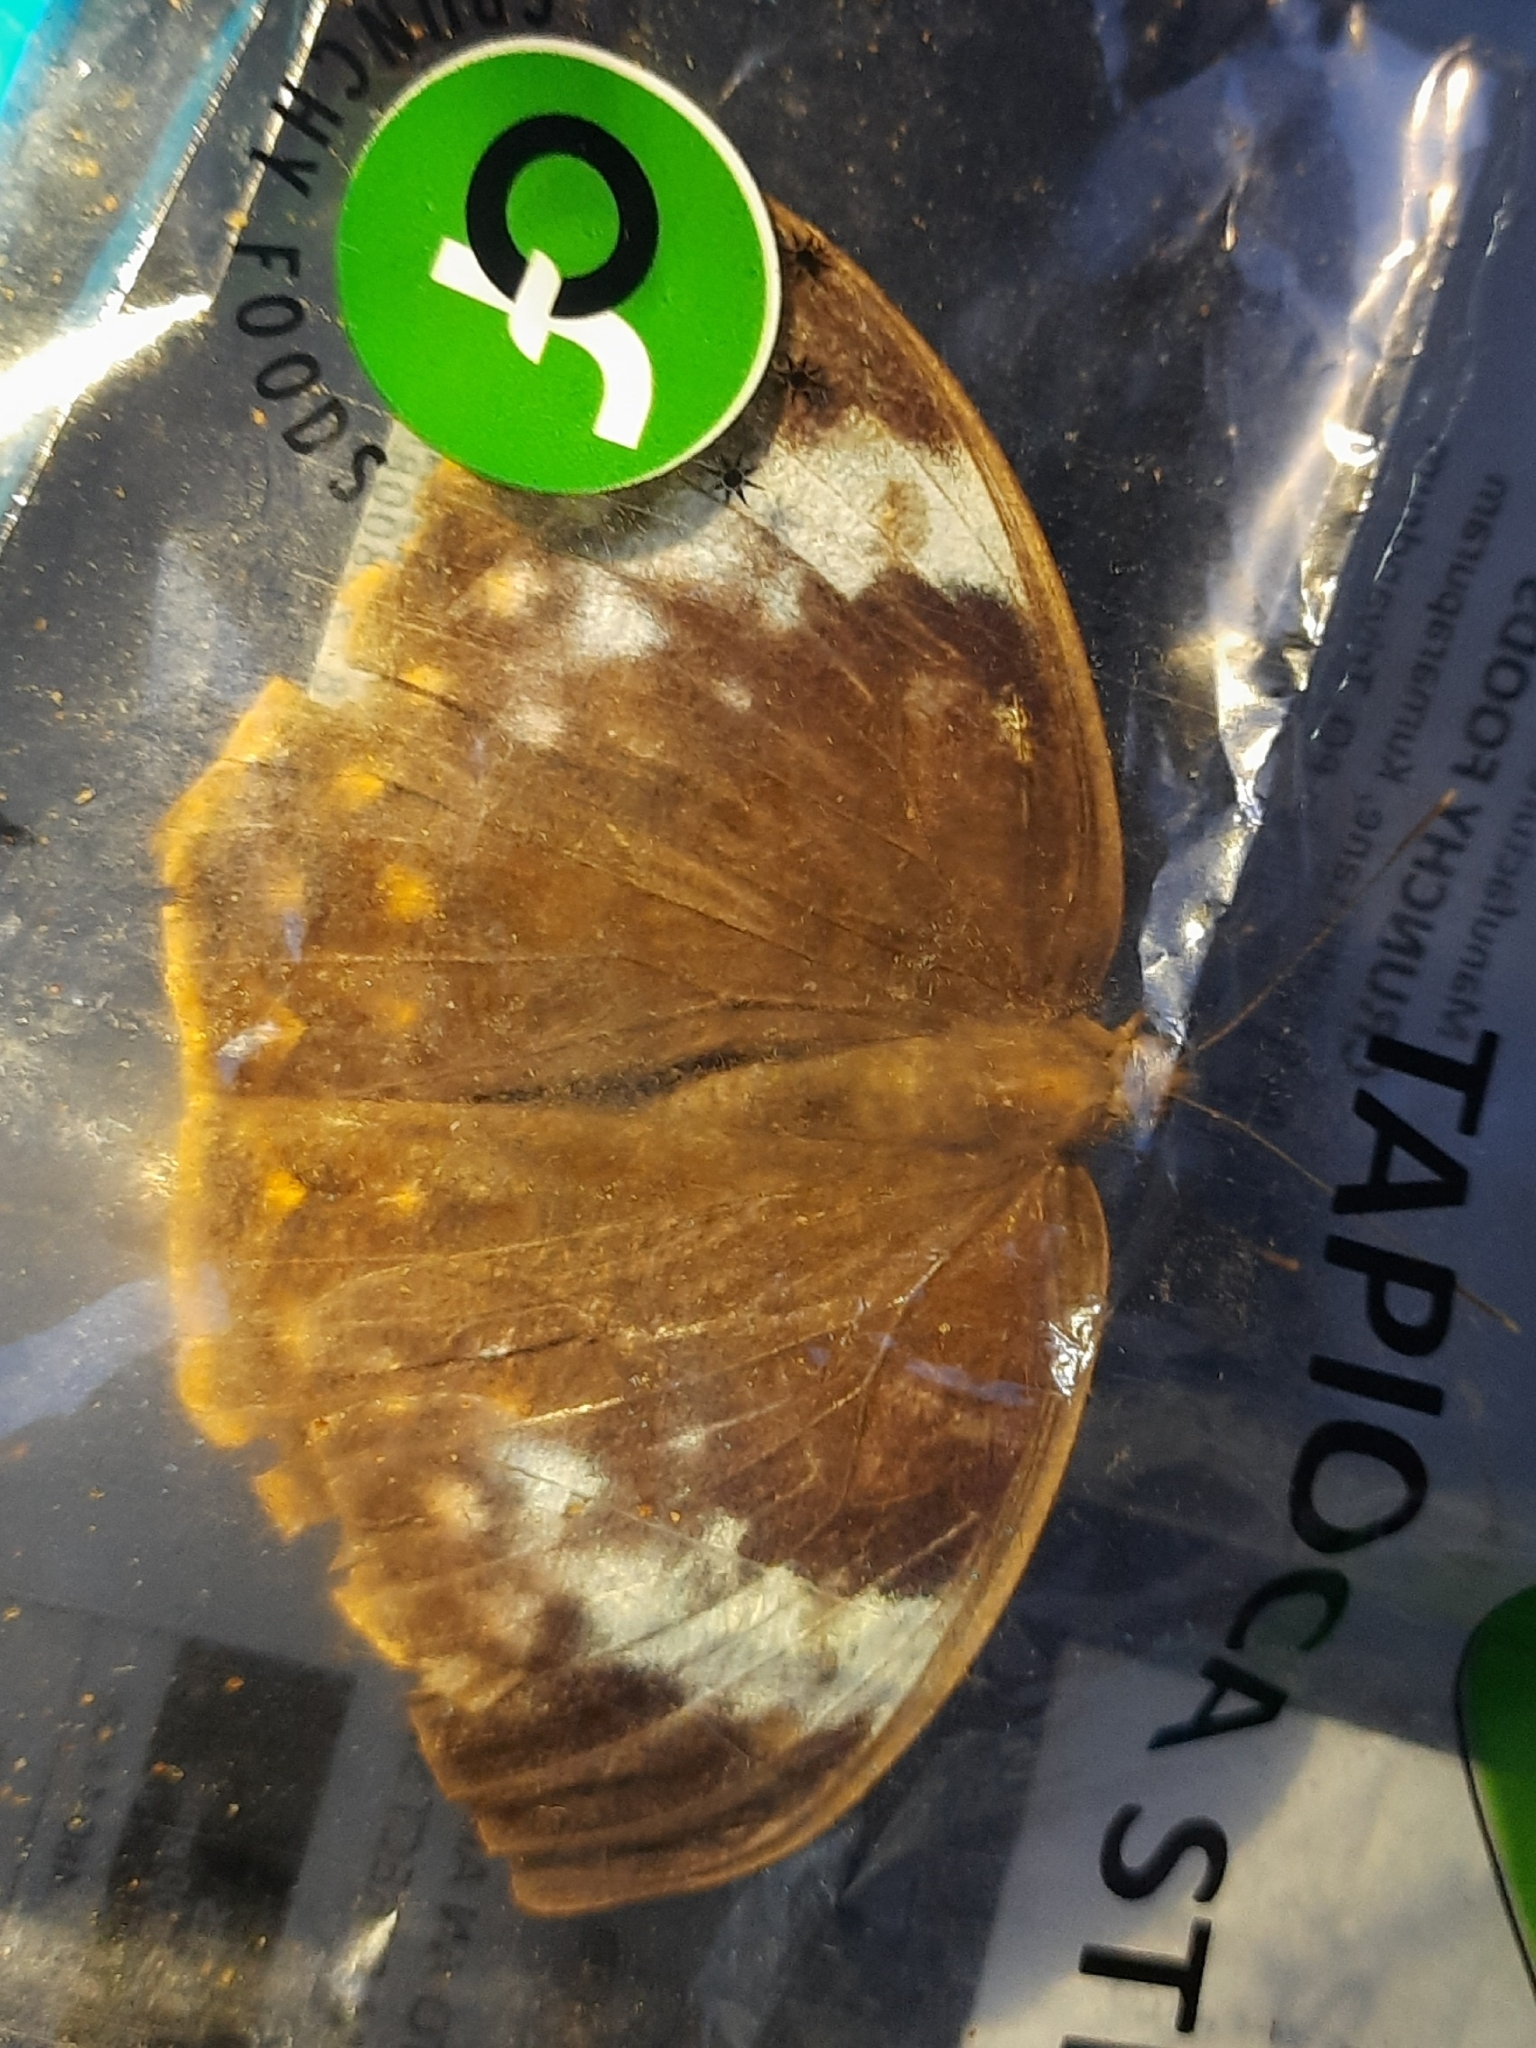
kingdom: Animalia
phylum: Arthropoda
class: Insecta
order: Lepidoptera
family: Nymphalidae
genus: Discophora
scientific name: Discophora lepida
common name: Southern duffer
